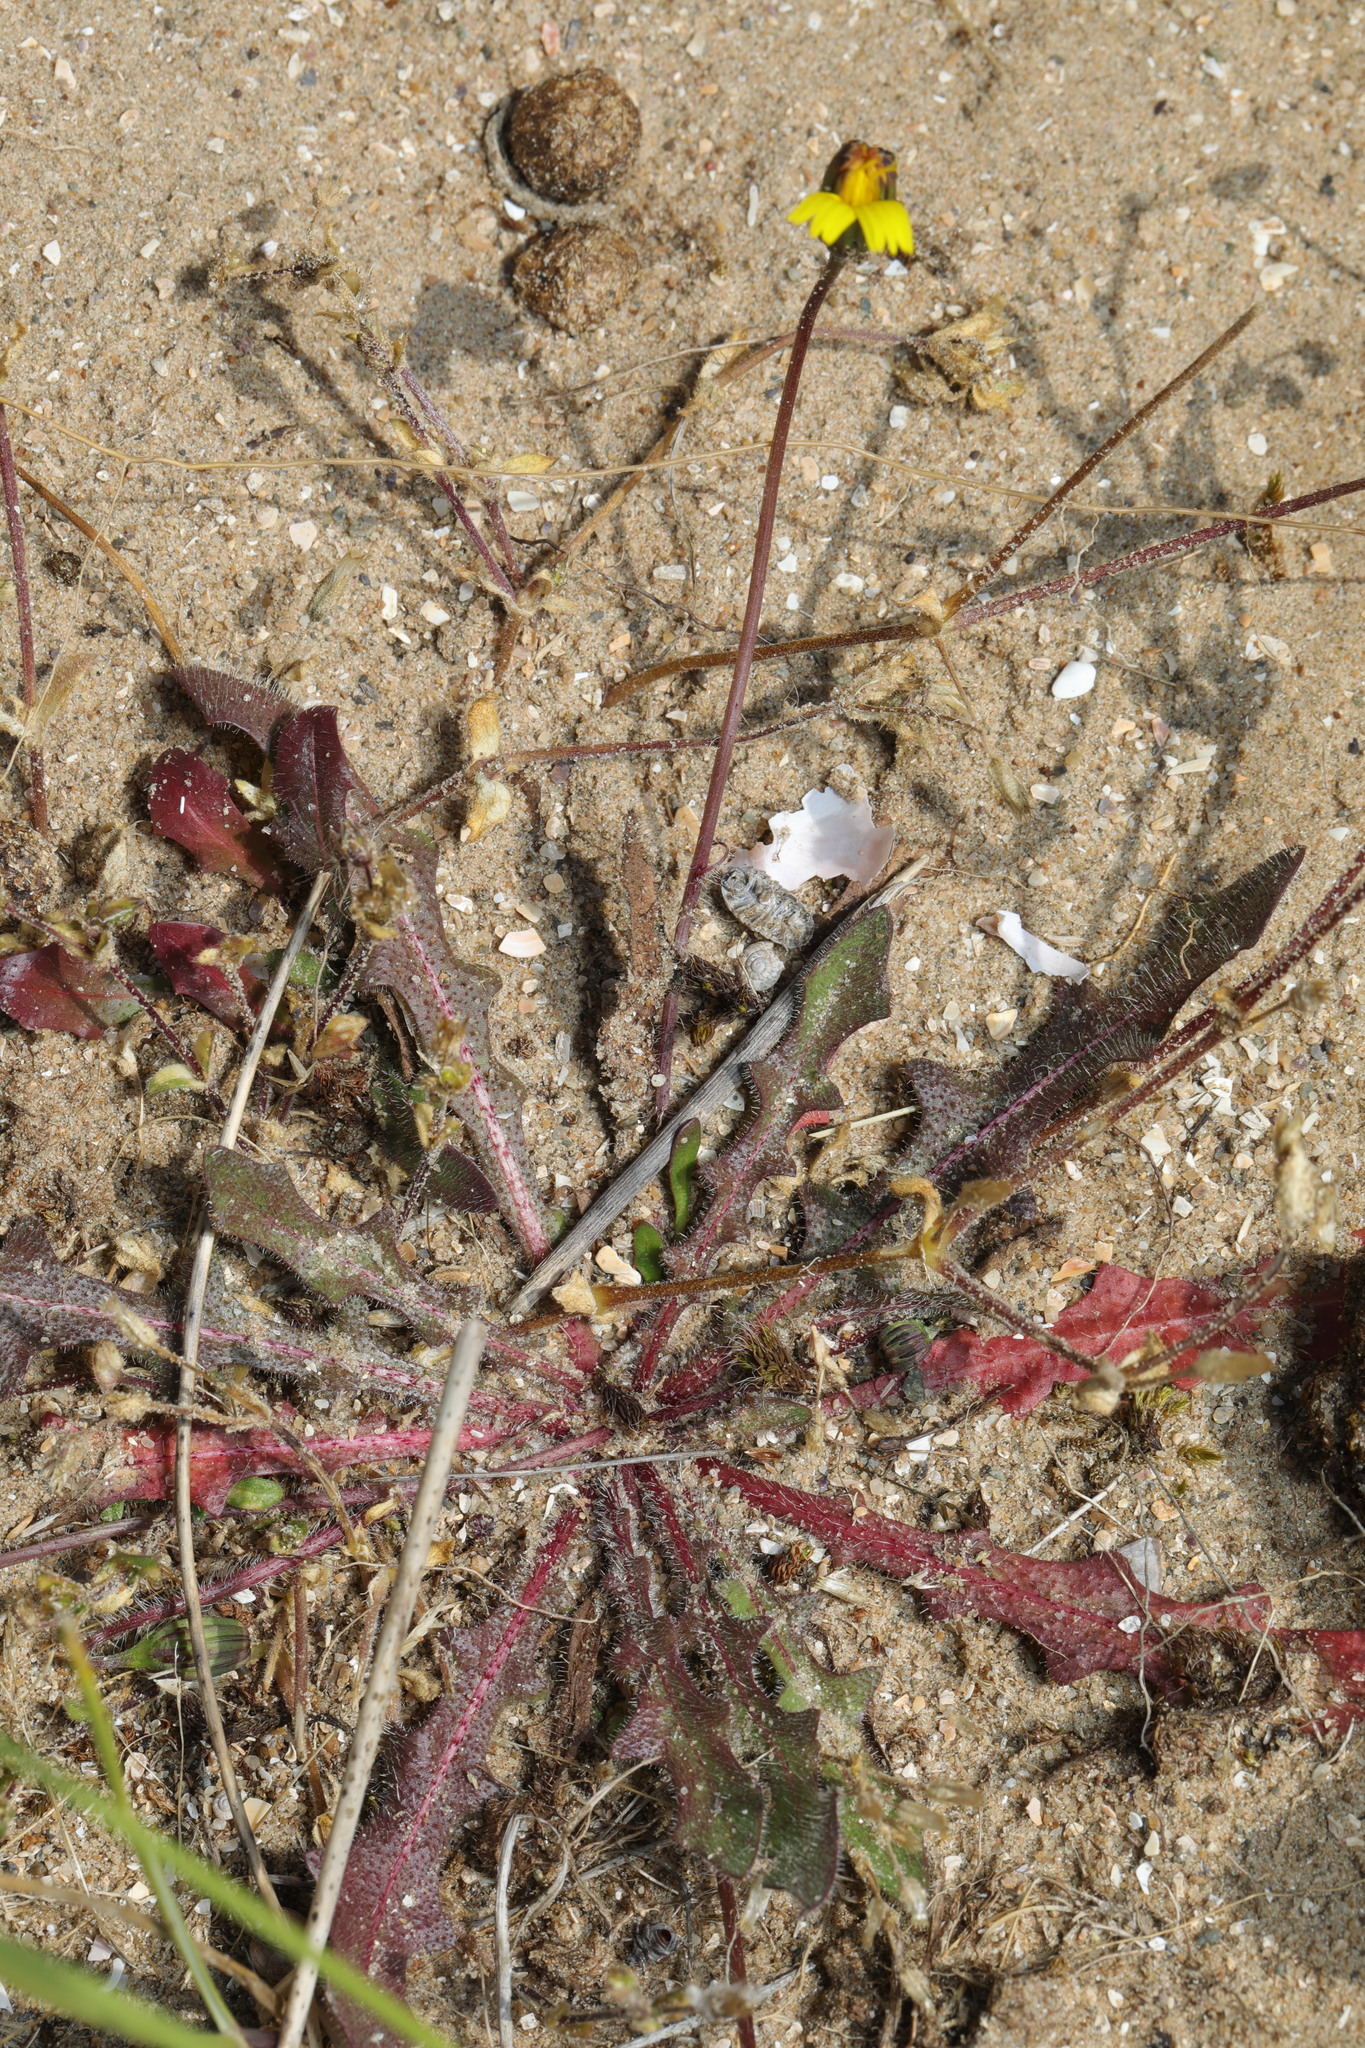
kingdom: Plantae
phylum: Tracheophyta
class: Magnoliopsida
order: Asterales
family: Asteraceae
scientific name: Asteraceae
